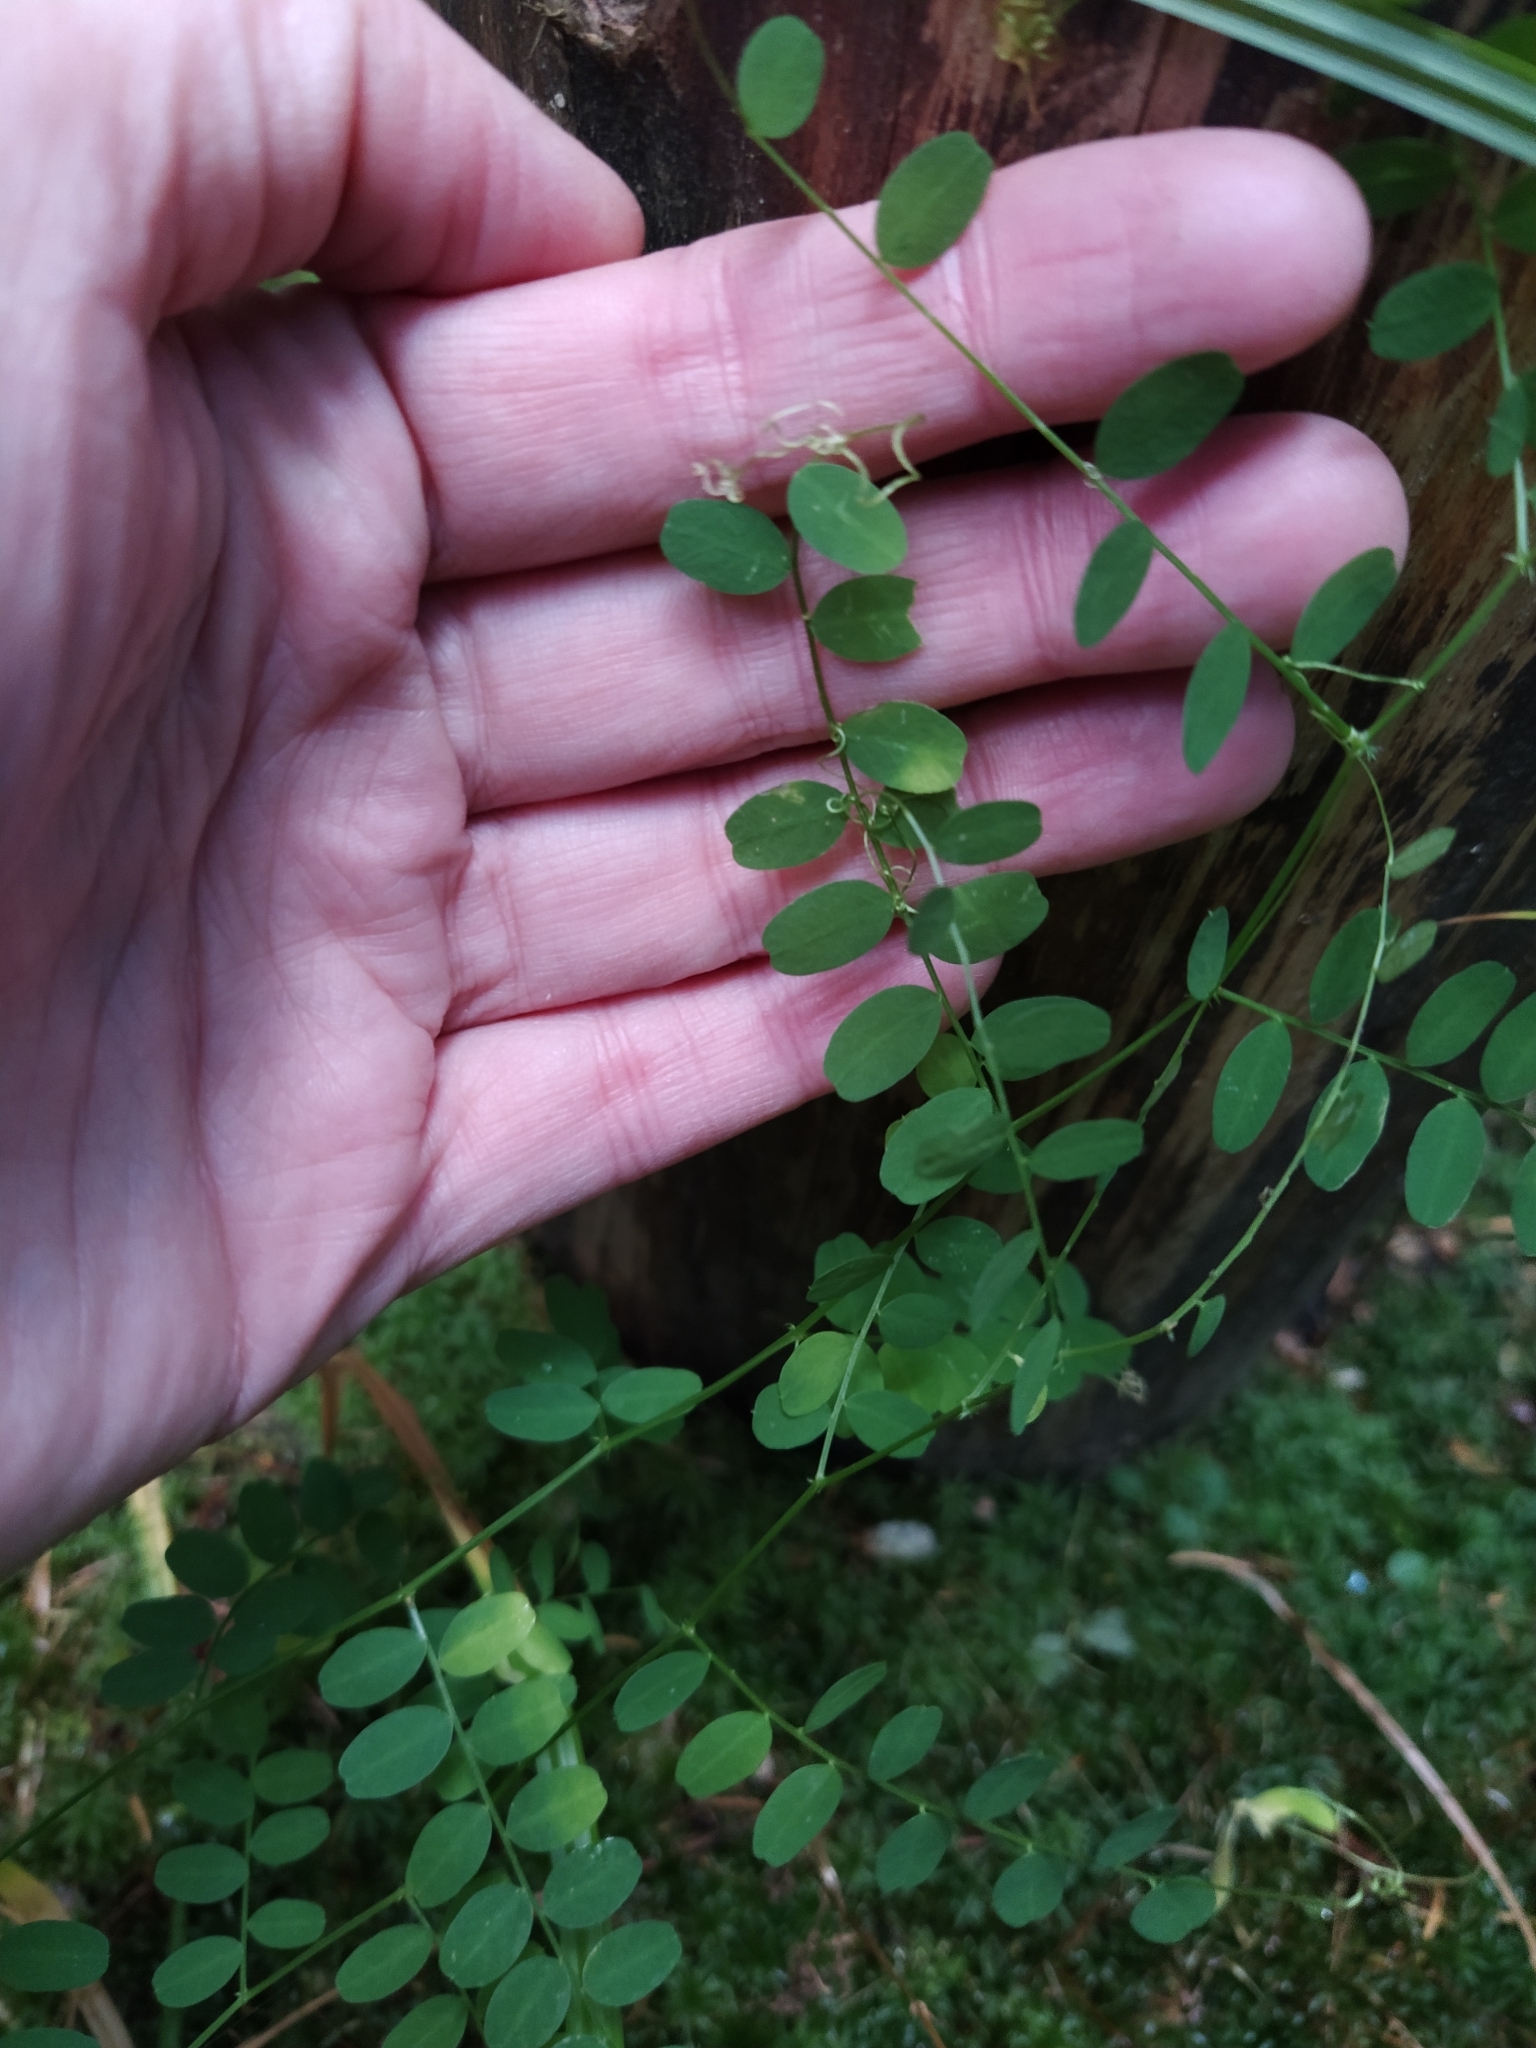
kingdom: Plantae
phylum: Tracheophyta
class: Magnoliopsida
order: Fabales
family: Fabaceae
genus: Vicia
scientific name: Vicia sylvatica
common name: Wood vetch
